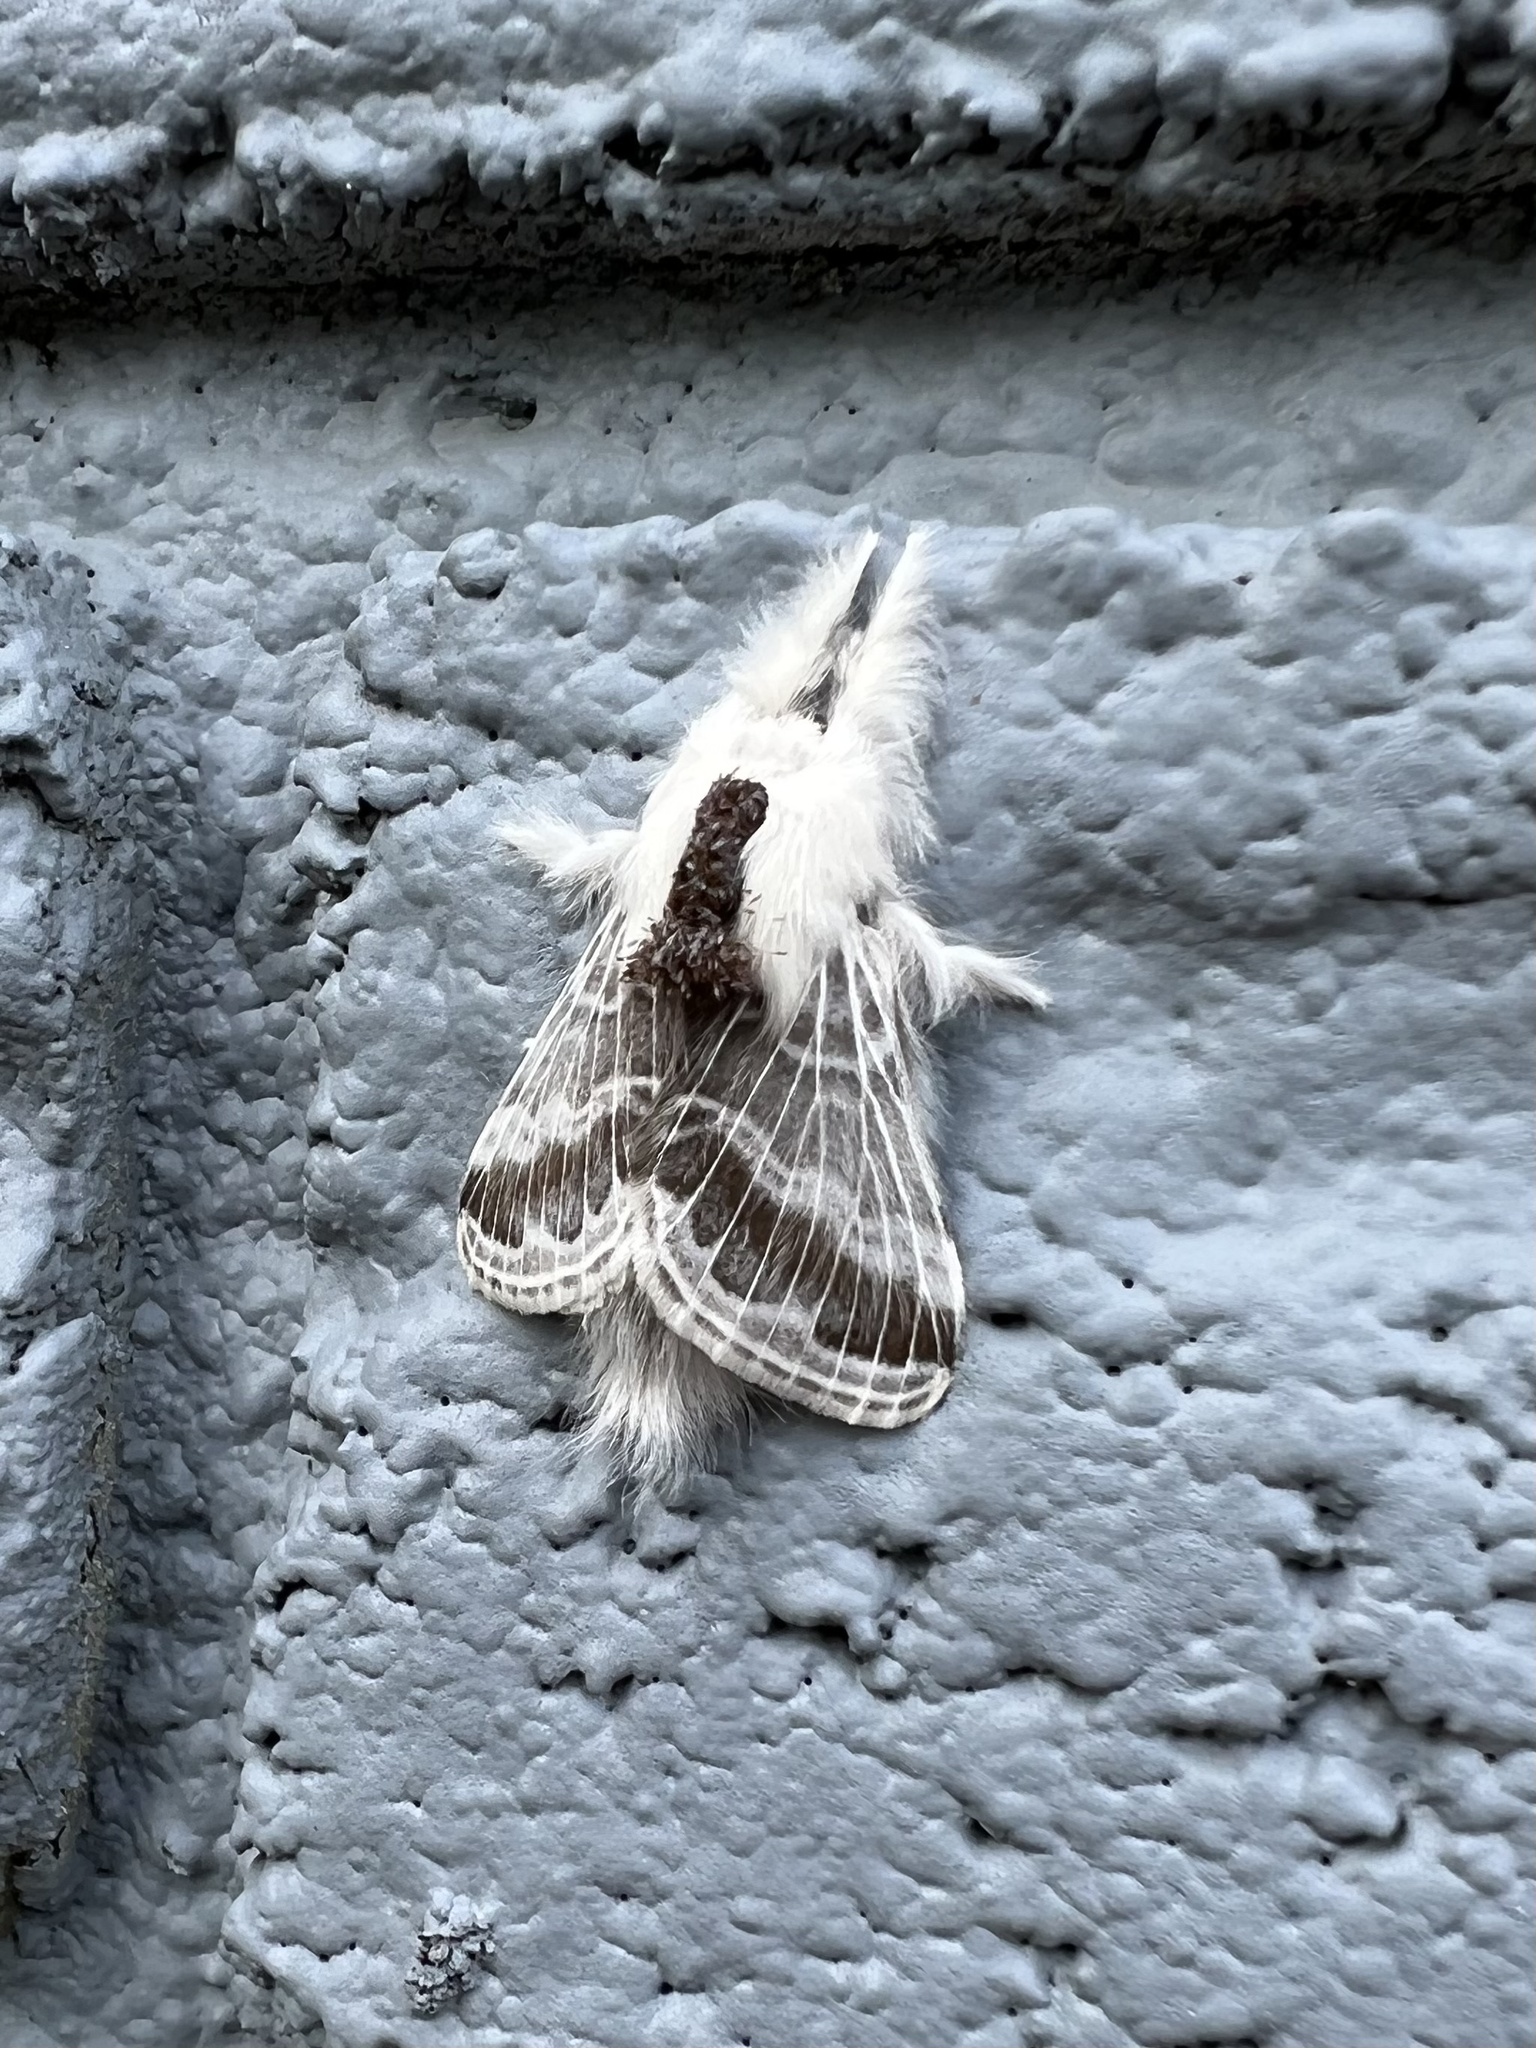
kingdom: Animalia
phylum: Arthropoda
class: Insecta
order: Lepidoptera
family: Lasiocampidae
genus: Tolype
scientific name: Tolype velleda
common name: Large tolype moth
